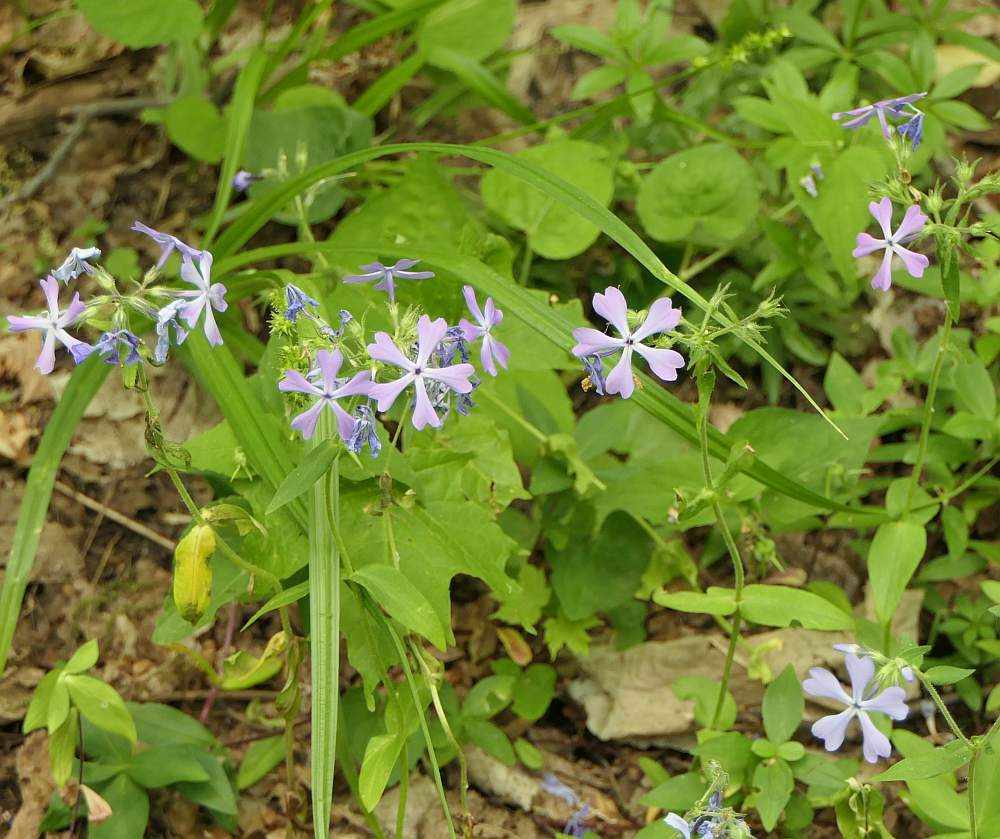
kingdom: Plantae
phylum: Tracheophyta
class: Magnoliopsida
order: Ericales
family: Polemoniaceae
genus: Phlox
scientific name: Phlox divaricata
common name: Blue phlox
